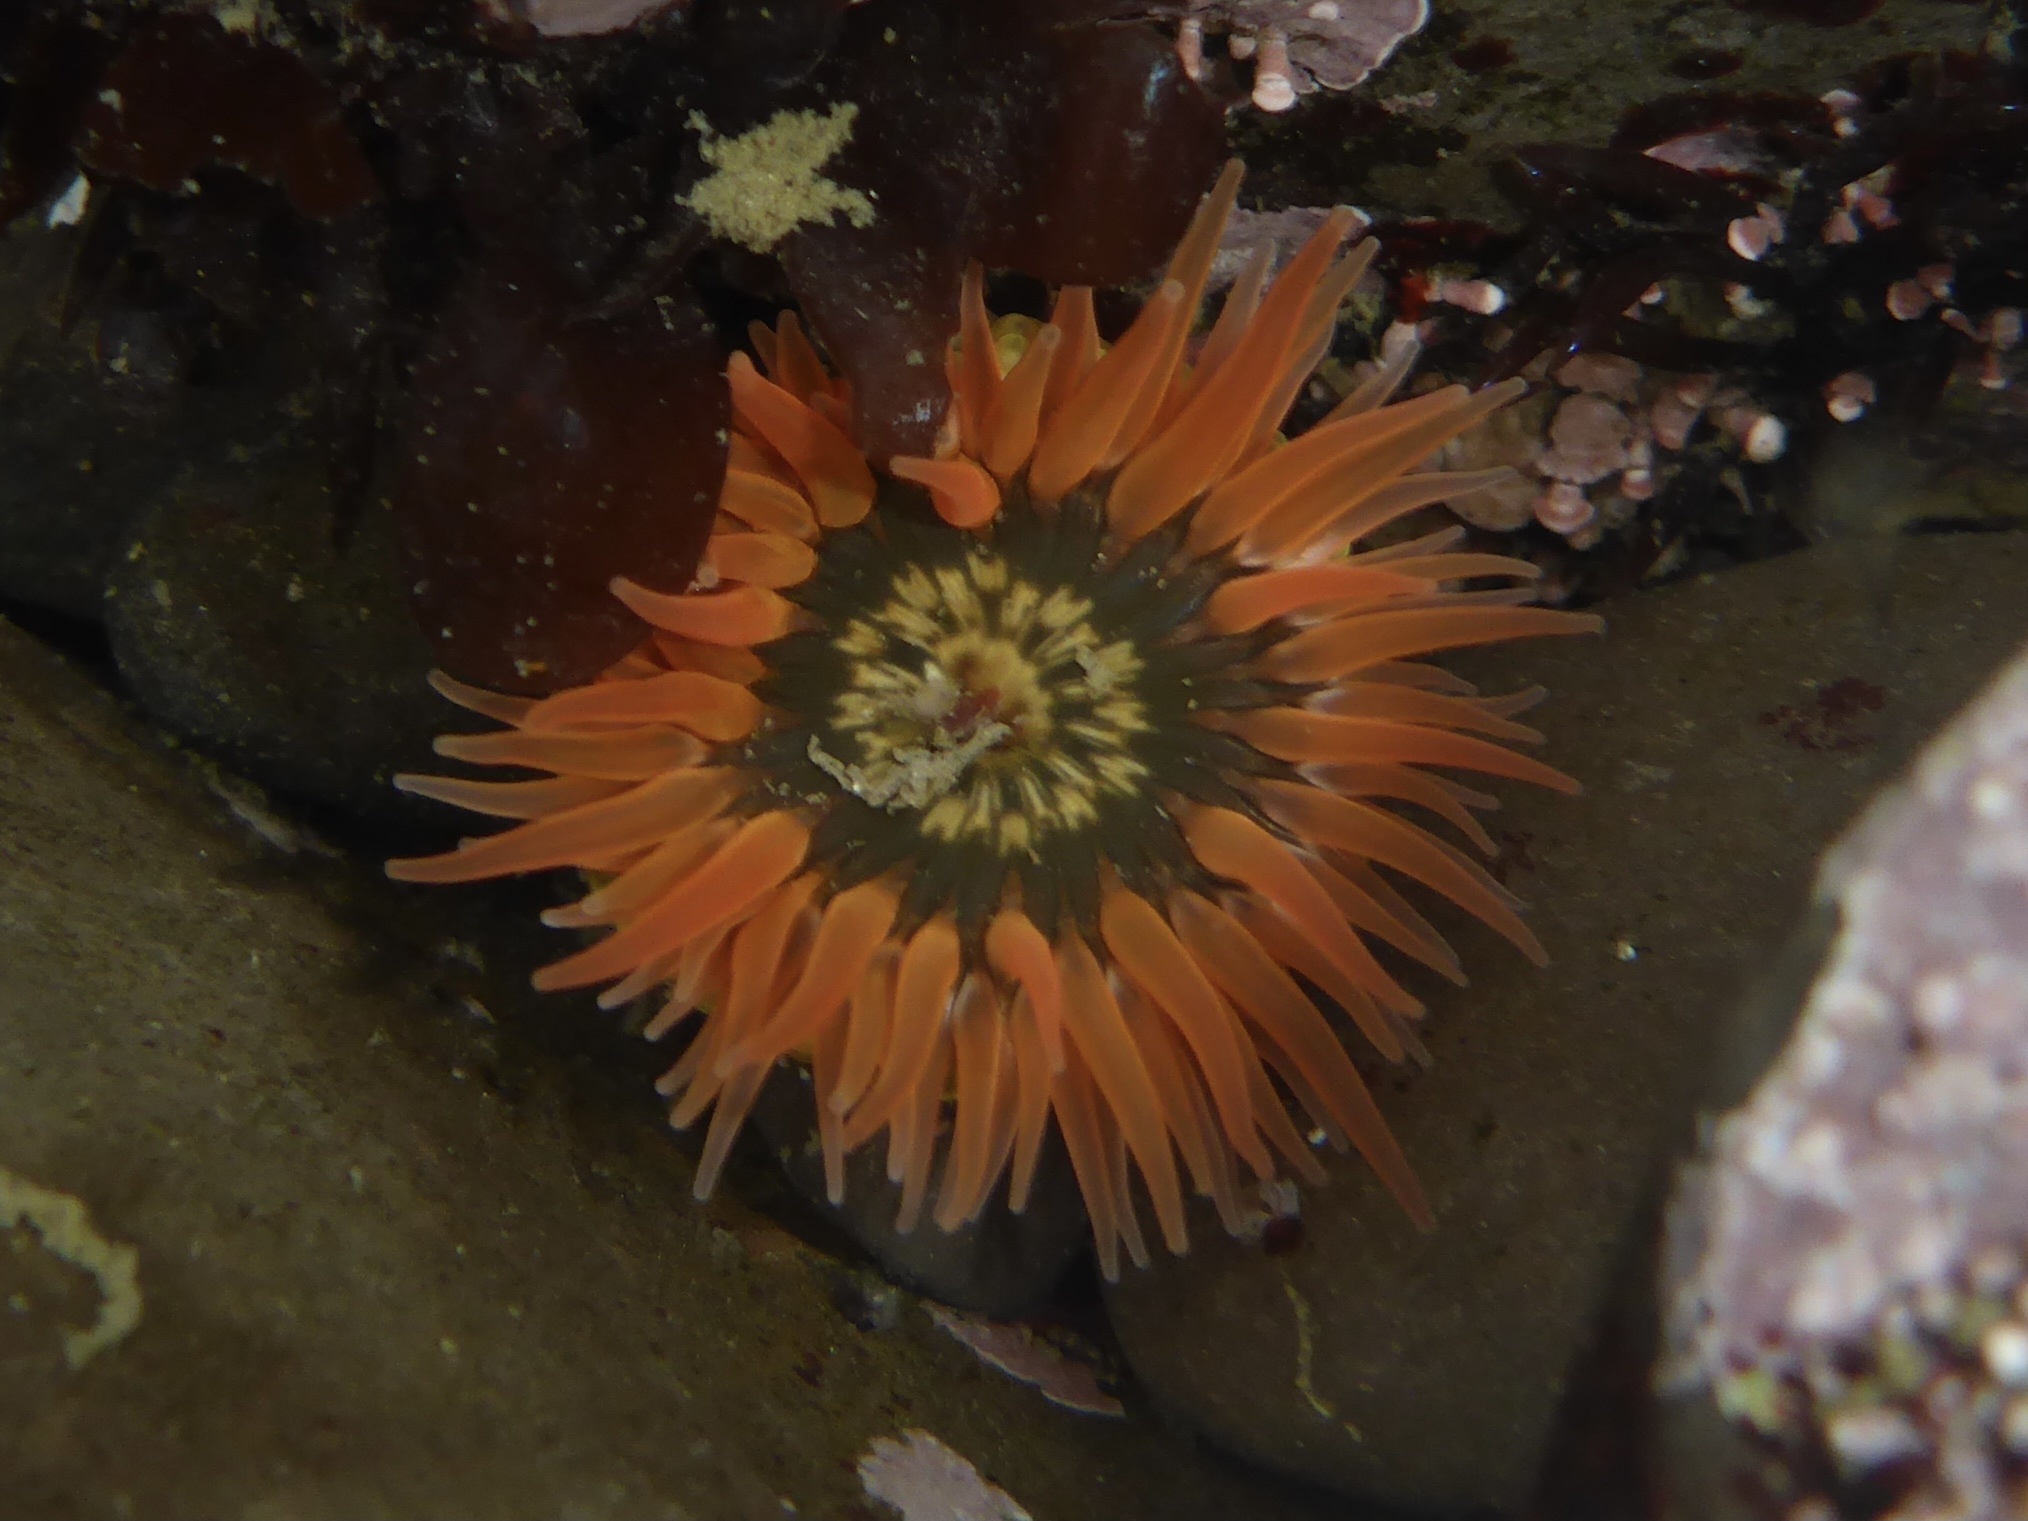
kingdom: Animalia
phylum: Cnidaria
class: Anthozoa
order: Actiniaria
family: Actiniidae
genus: Anthopleura
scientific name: Anthopleura artemisia
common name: Buried sea anemone
